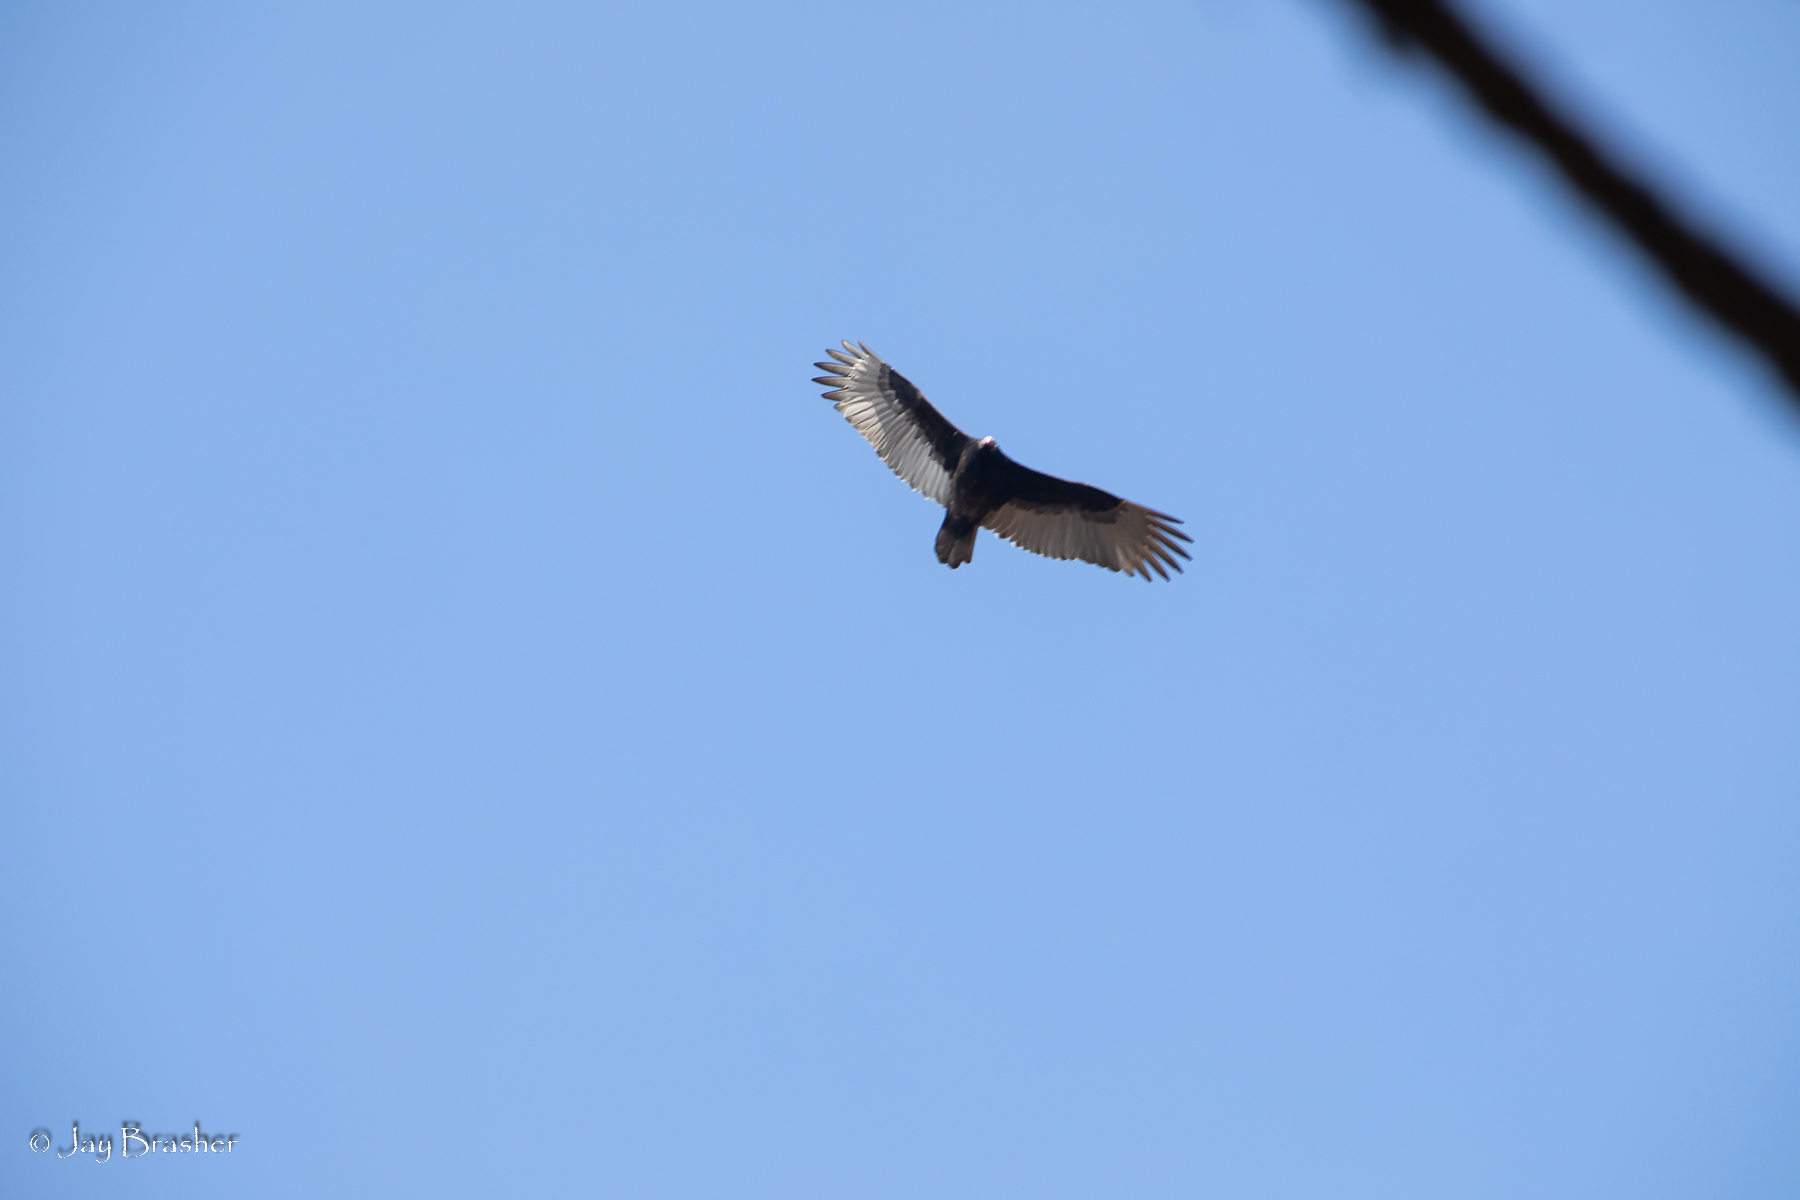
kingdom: Animalia
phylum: Chordata
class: Aves
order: Accipitriformes
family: Cathartidae
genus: Cathartes
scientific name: Cathartes aura
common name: Turkey vulture
